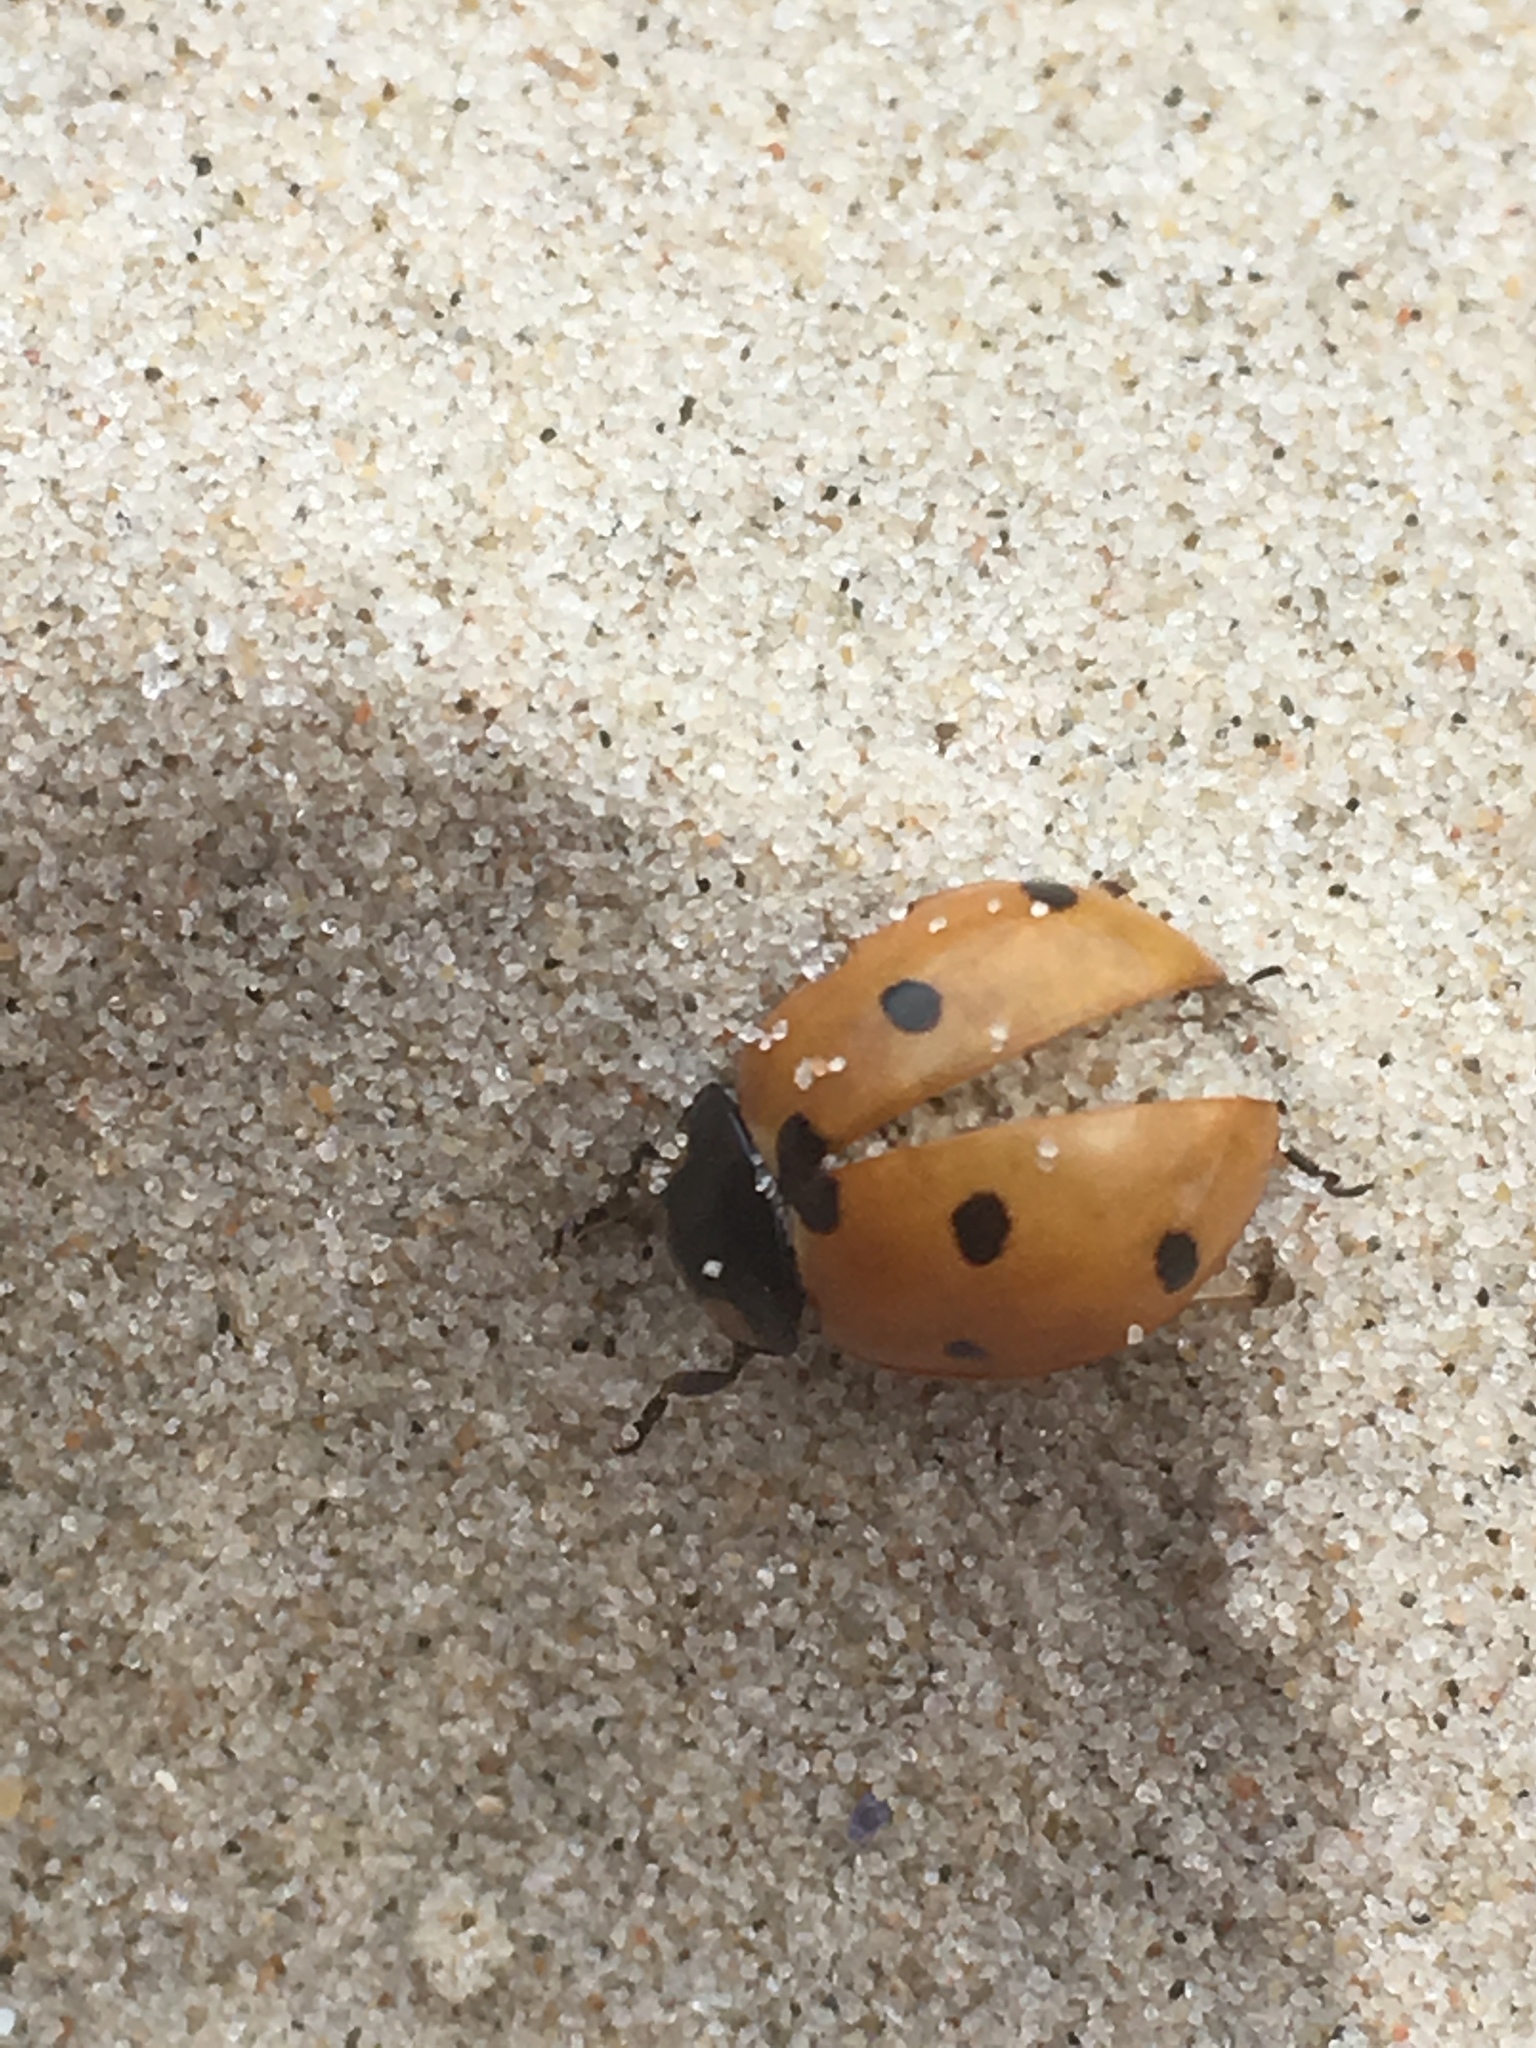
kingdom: Animalia
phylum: Arthropoda
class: Insecta
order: Coleoptera
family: Coccinellidae
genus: Coccinella
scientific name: Coccinella septempunctata
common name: Sevenspotted lady beetle
